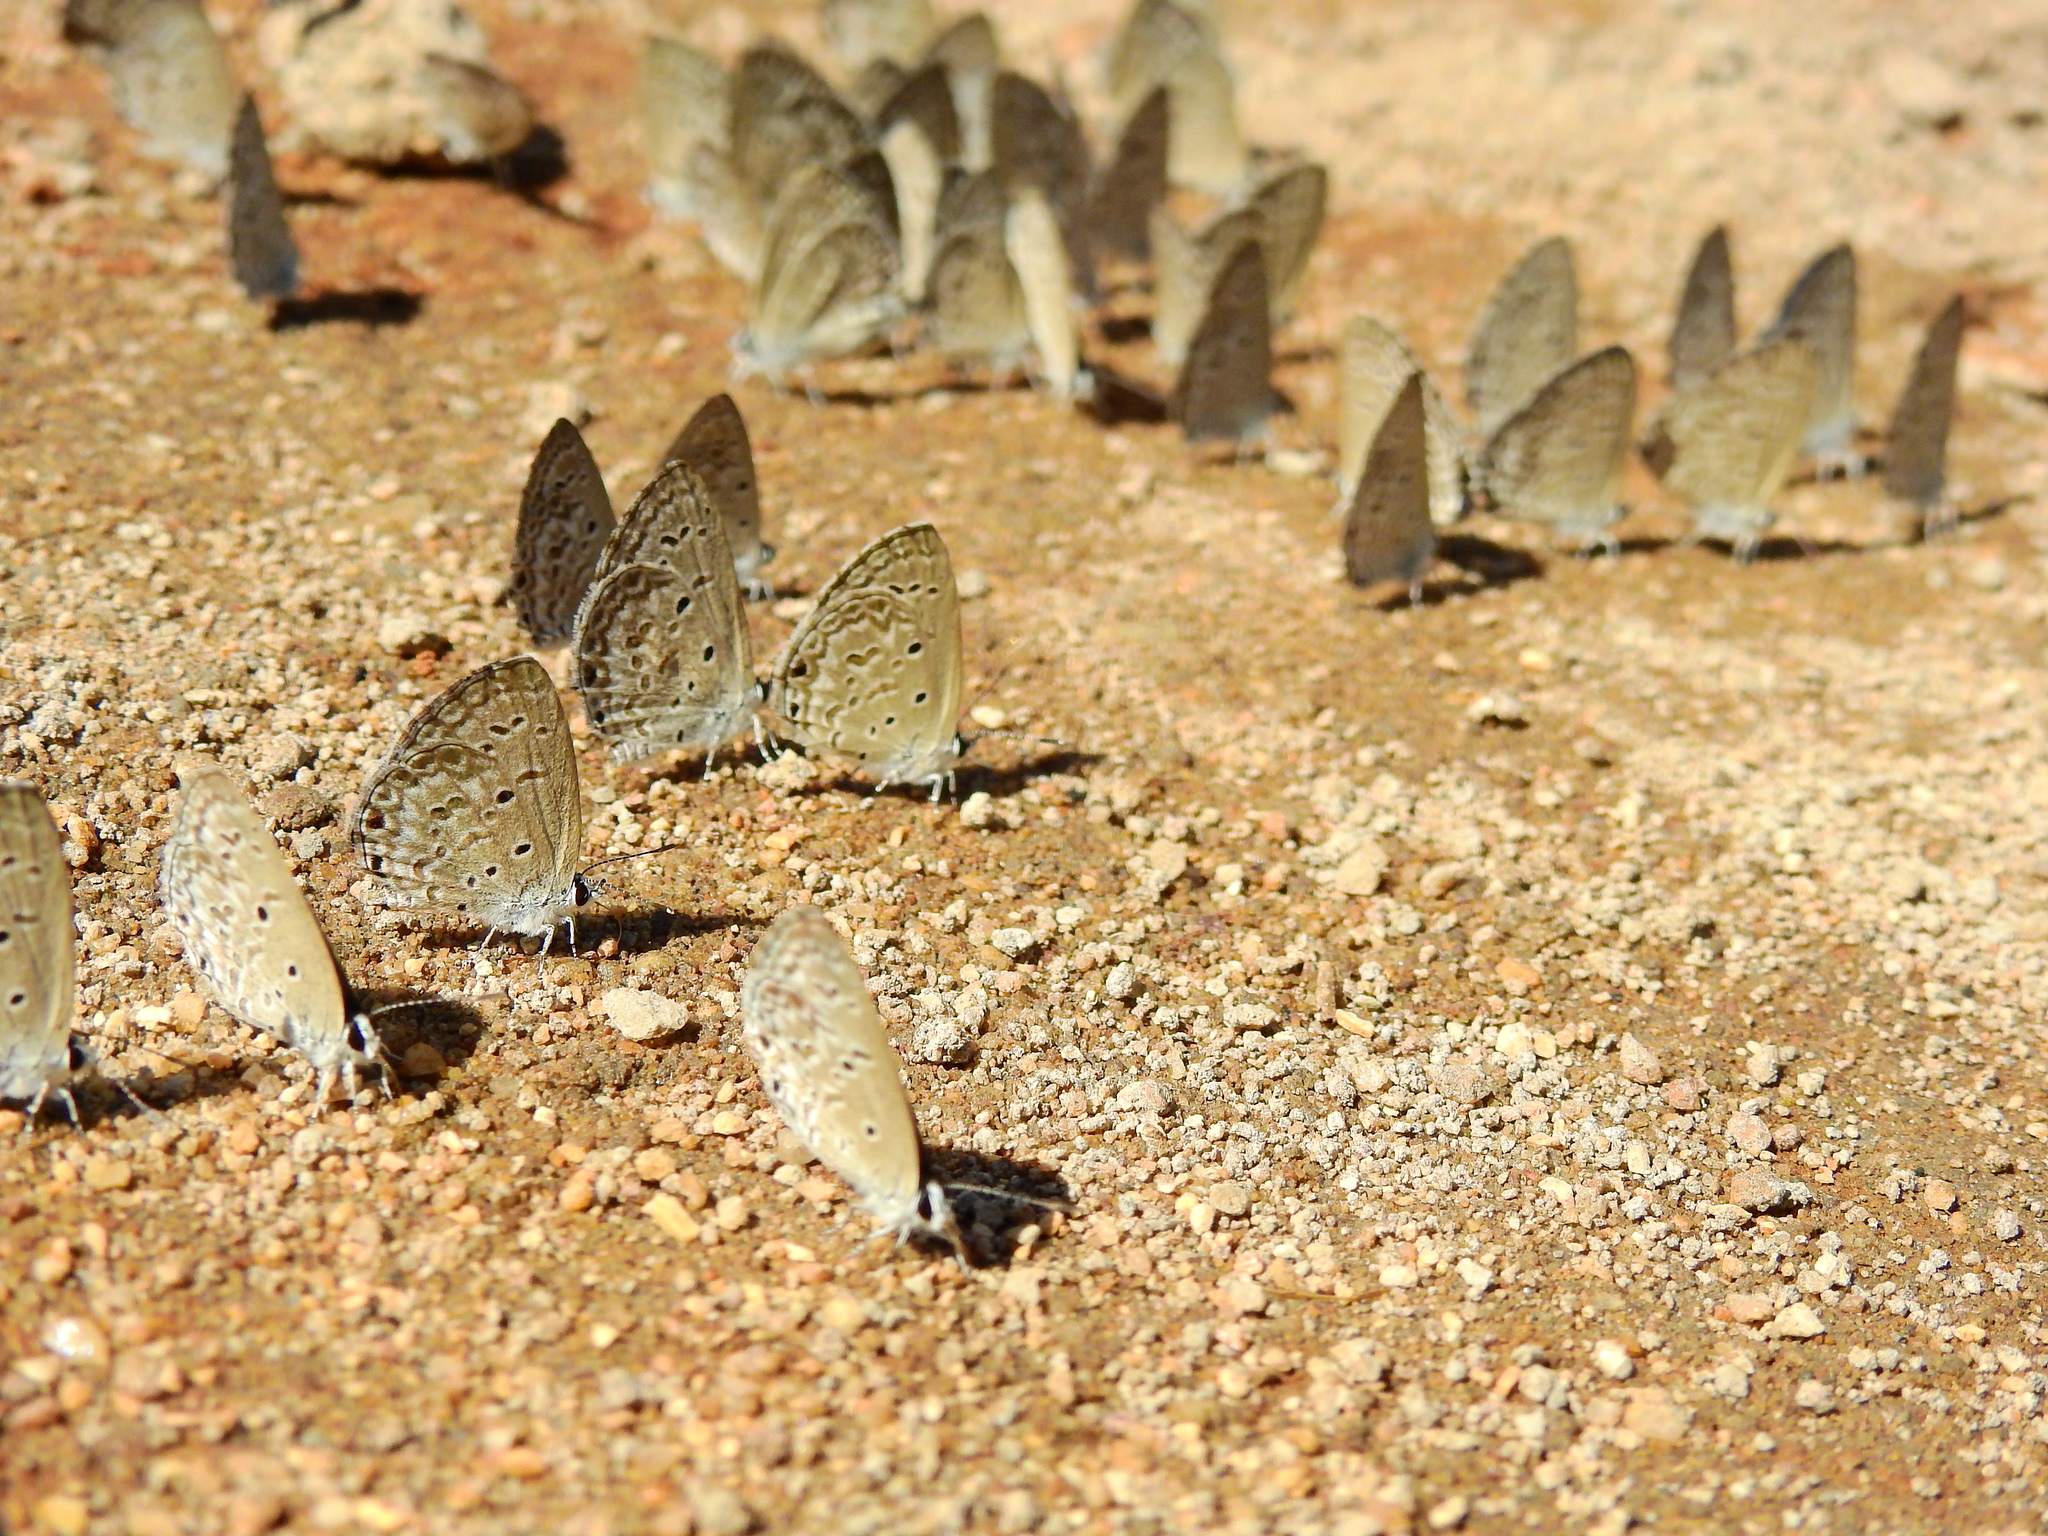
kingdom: Animalia
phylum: Arthropoda
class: Insecta
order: Lepidoptera
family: Lycaenidae
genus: Chilades
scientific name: Chilades laius
